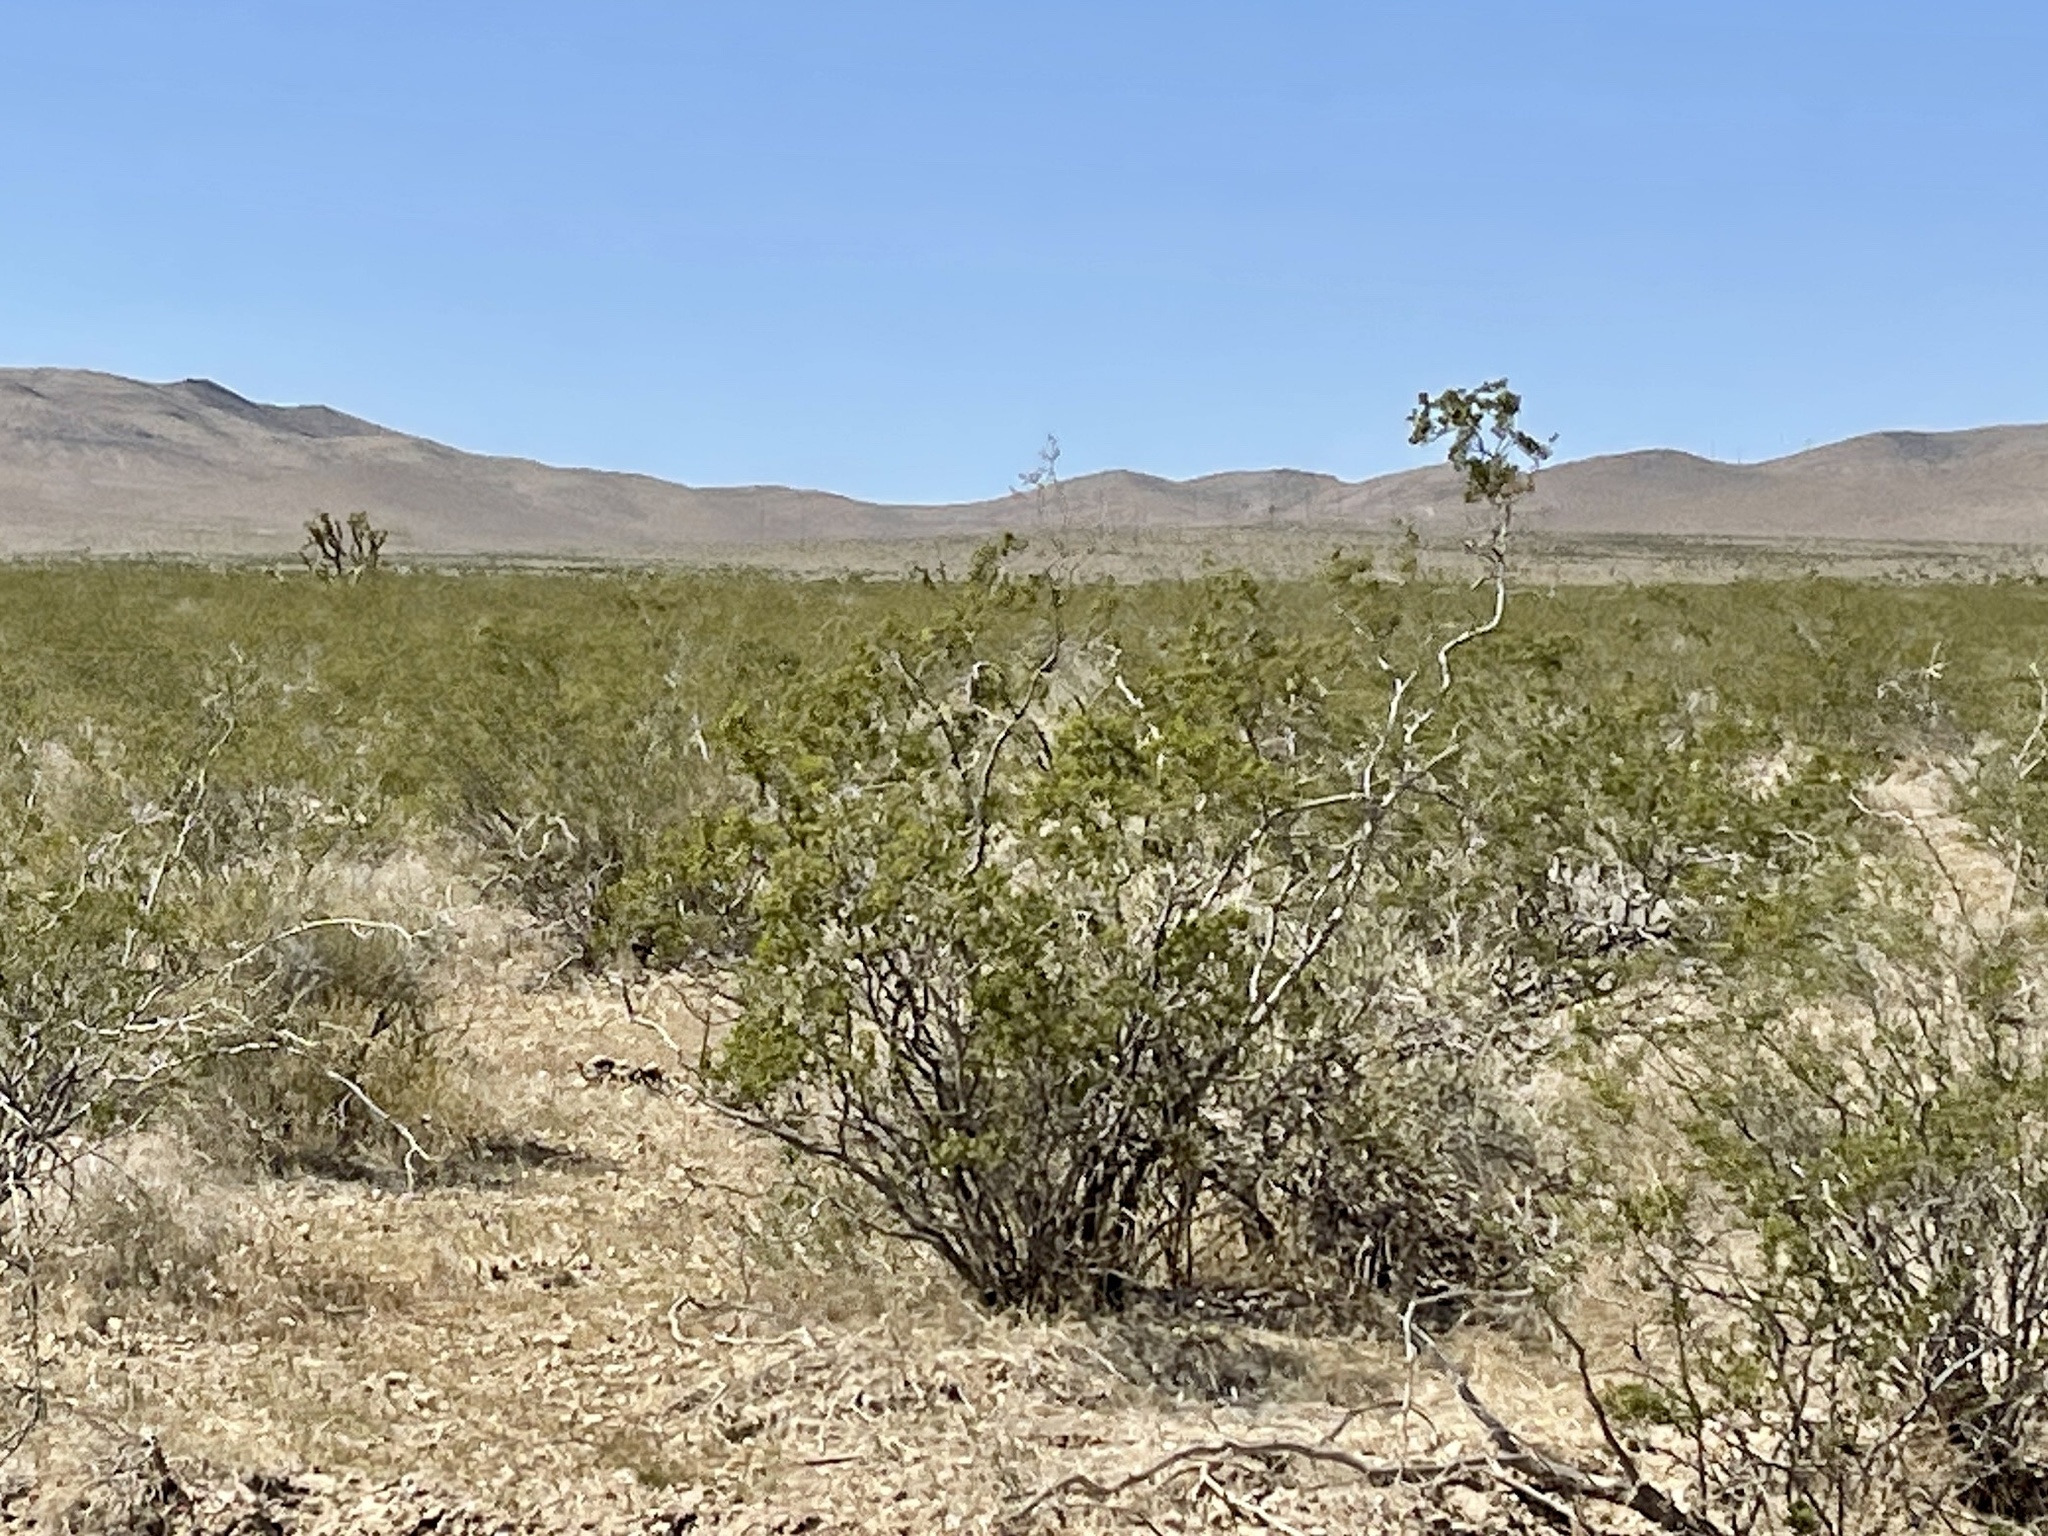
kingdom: Plantae
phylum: Tracheophyta
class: Magnoliopsida
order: Zygophyllales
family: Zygophyllaceae
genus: Larrea
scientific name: Larrea tridentata
